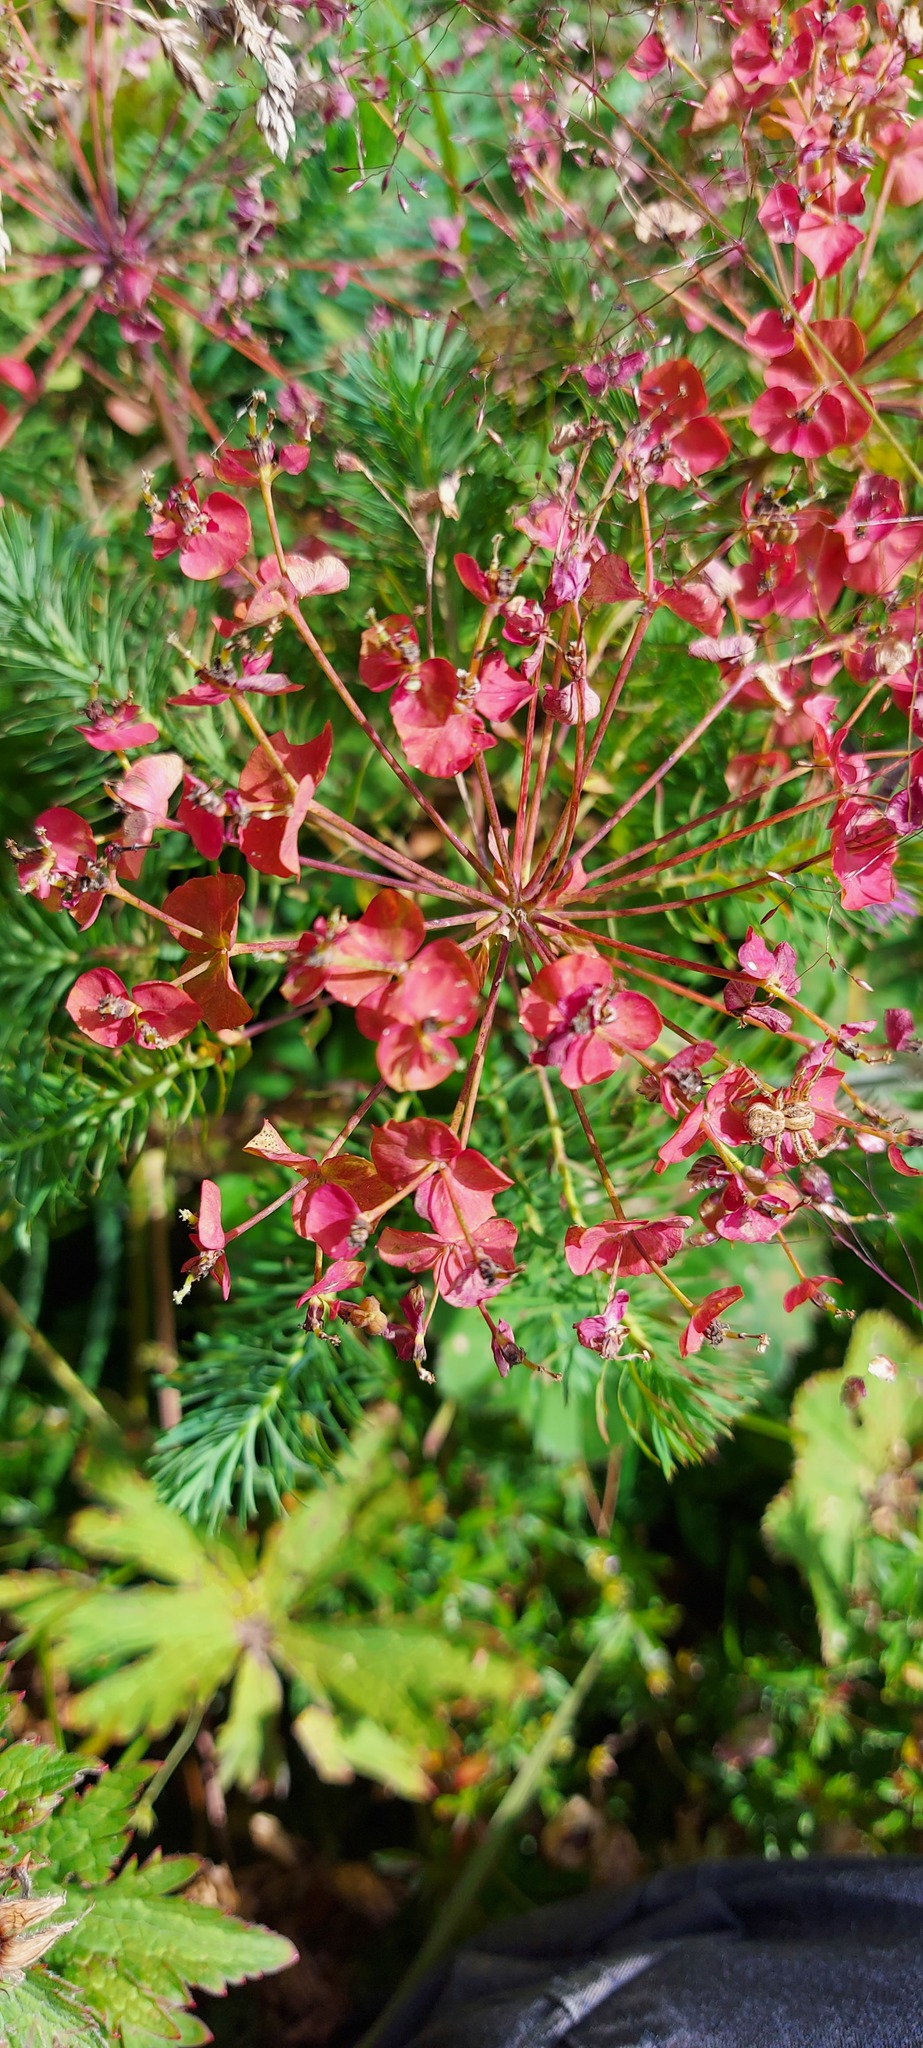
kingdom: Plantae
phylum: Tracheophyta
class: Magnoliopsida
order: Malpighiales
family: Euphorbiaceae
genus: Euphorbia
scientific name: Euphorbia cyparissias
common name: Cypress spurge
